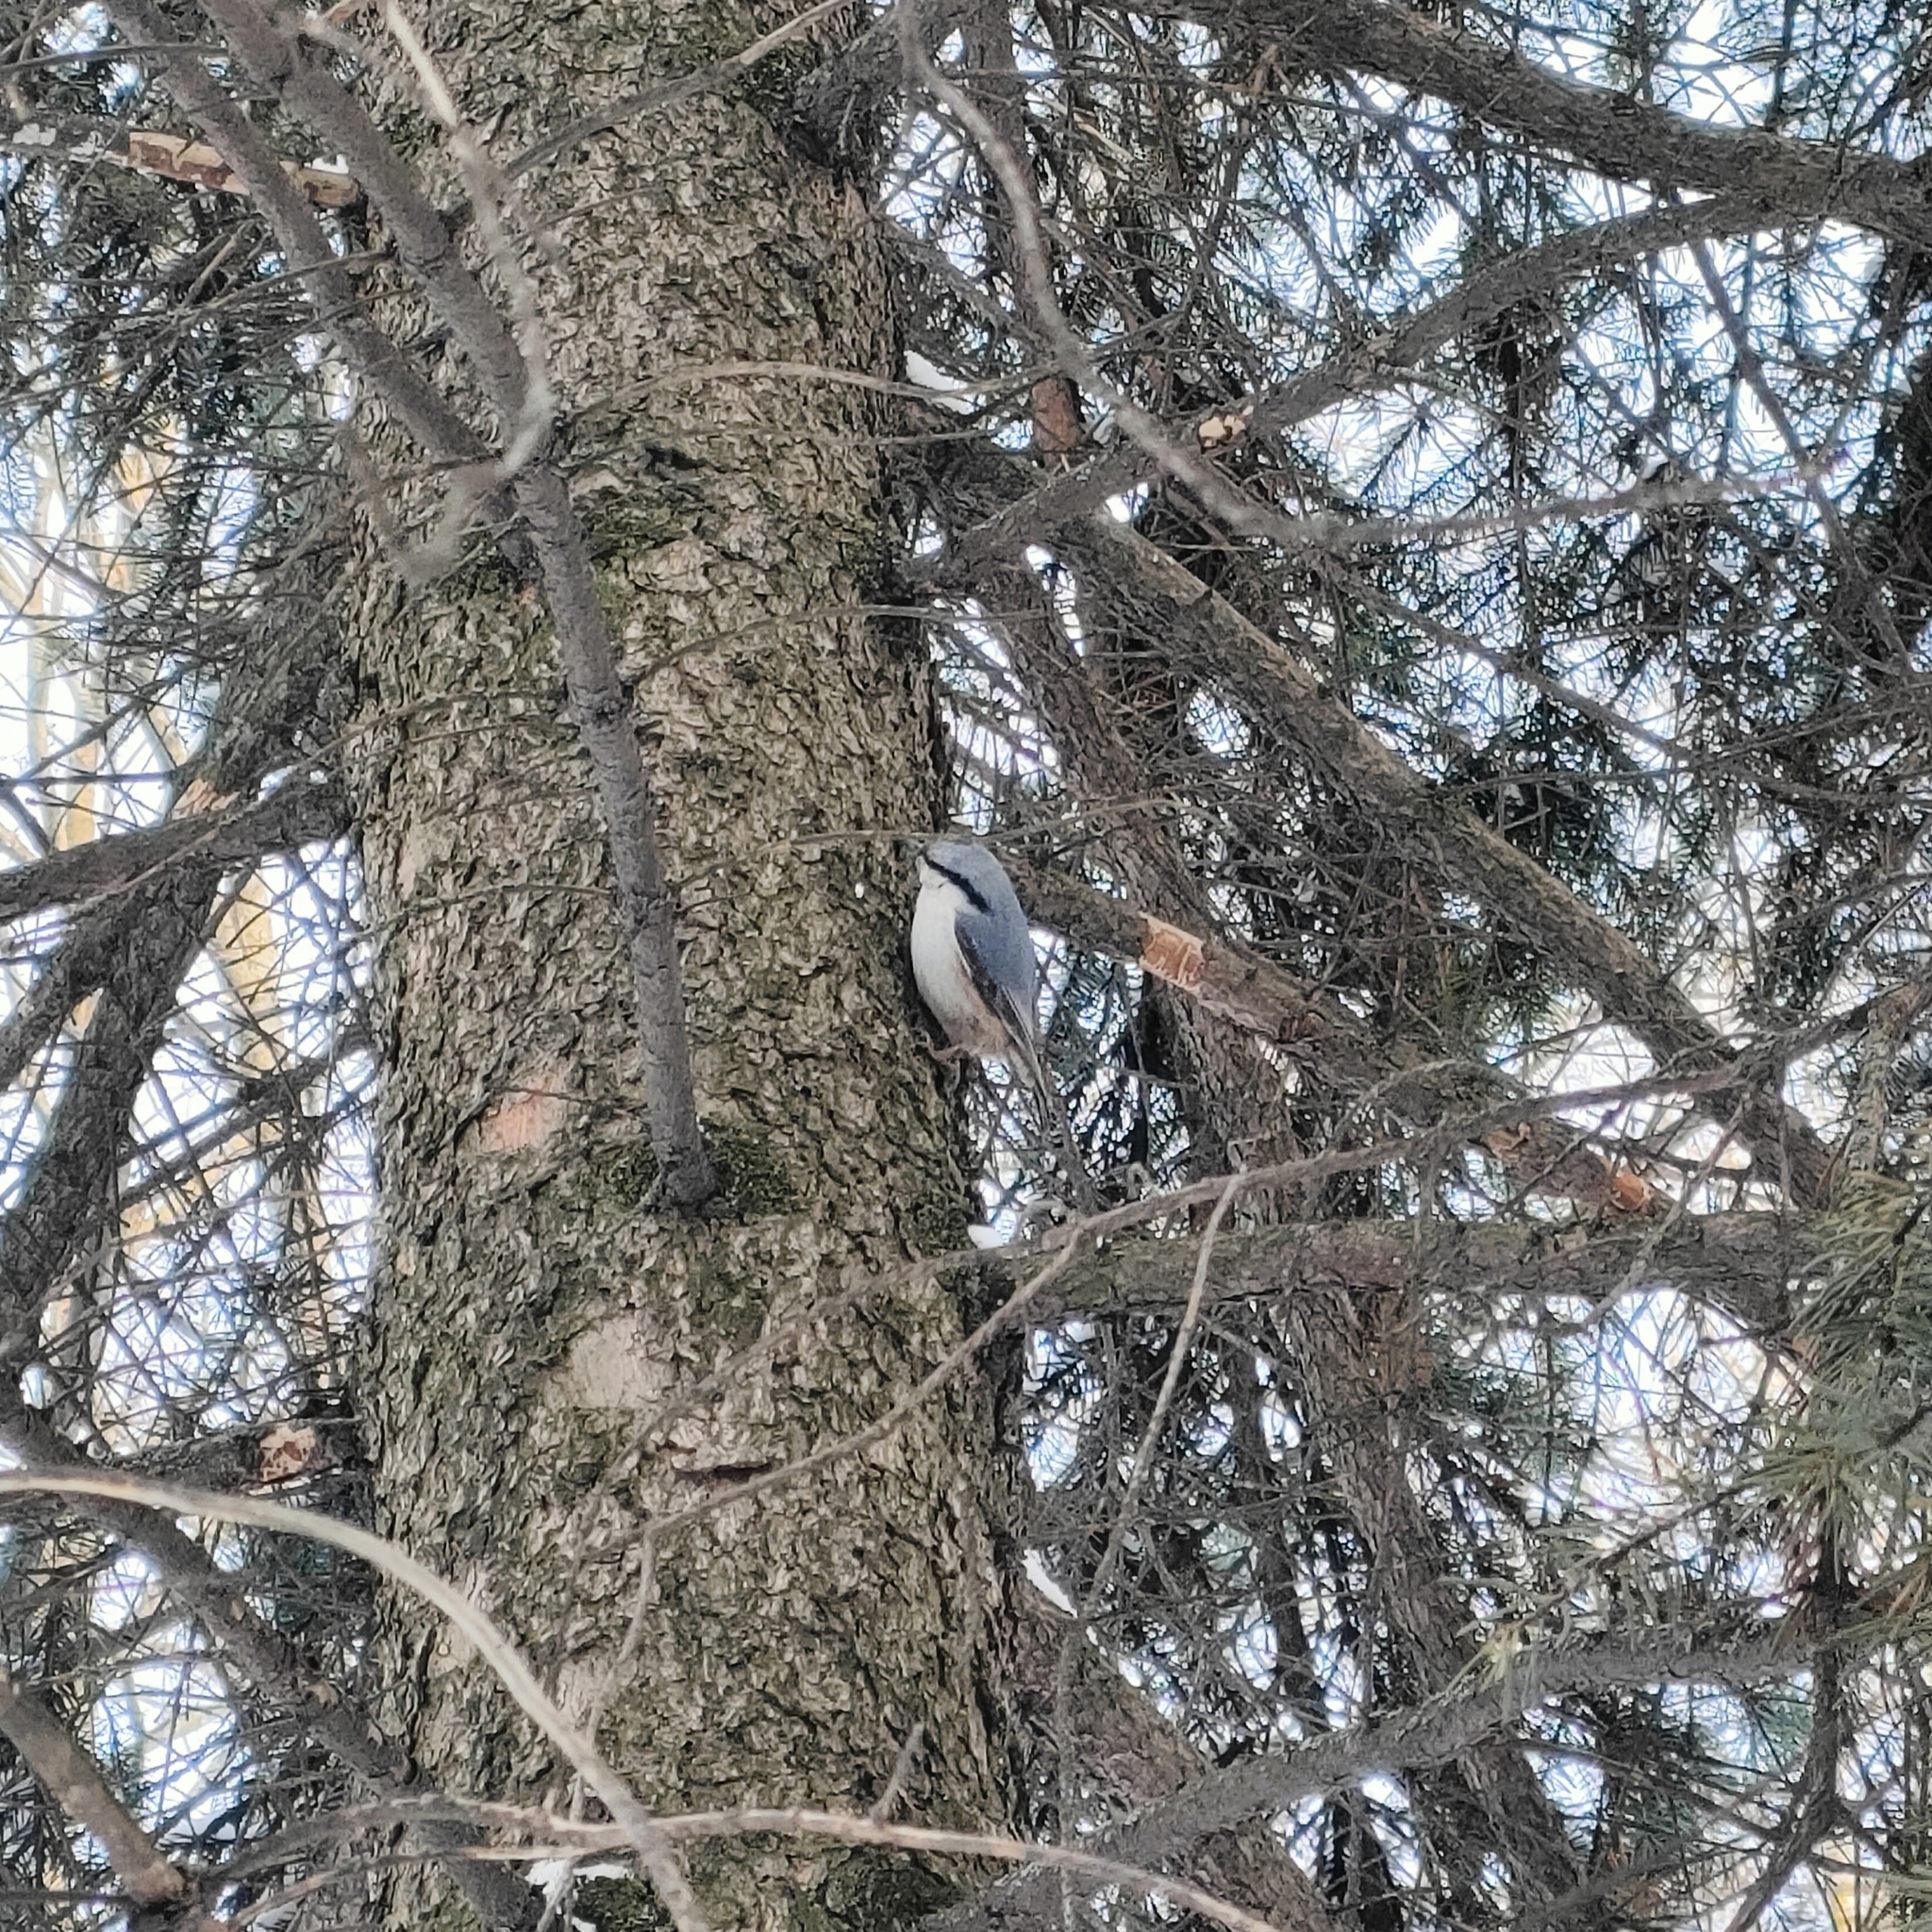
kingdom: Animalia
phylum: Chordata
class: Aves
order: Passeriformes
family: Sittidae
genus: Sitta
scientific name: Sitta europaea
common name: Eurasian nuthatch
